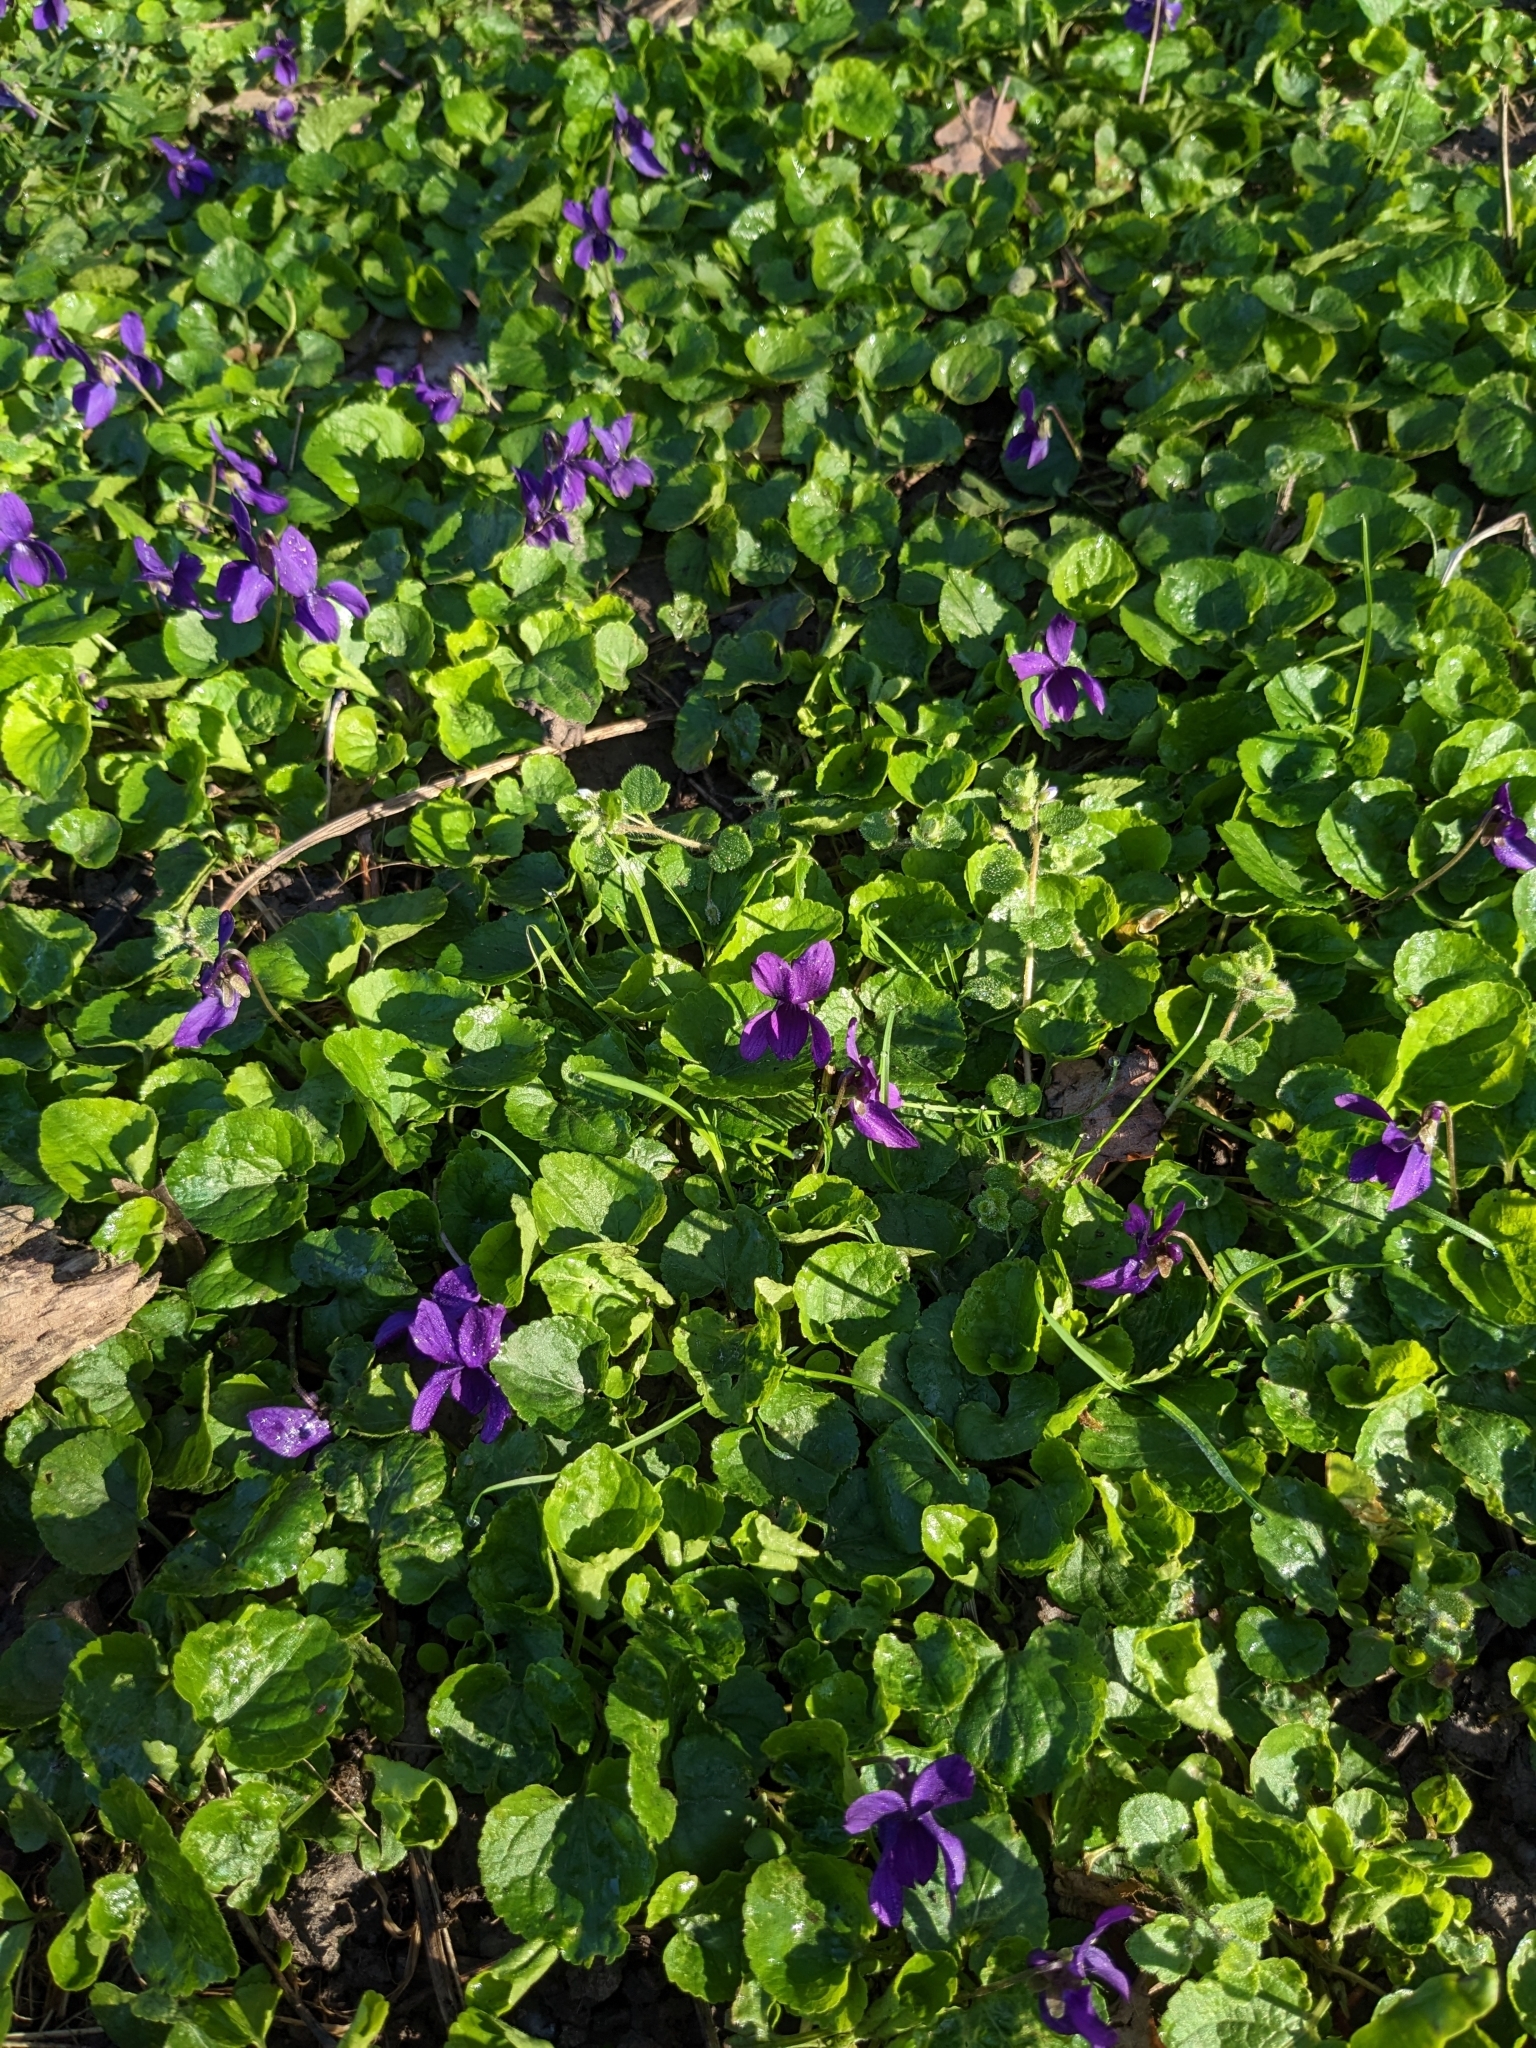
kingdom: Plantae
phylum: Tracheophyta
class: Magnoliopsida
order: Malpighiales
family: Violaceae
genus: Viola
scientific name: Viola odorata
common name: Sweet violet
